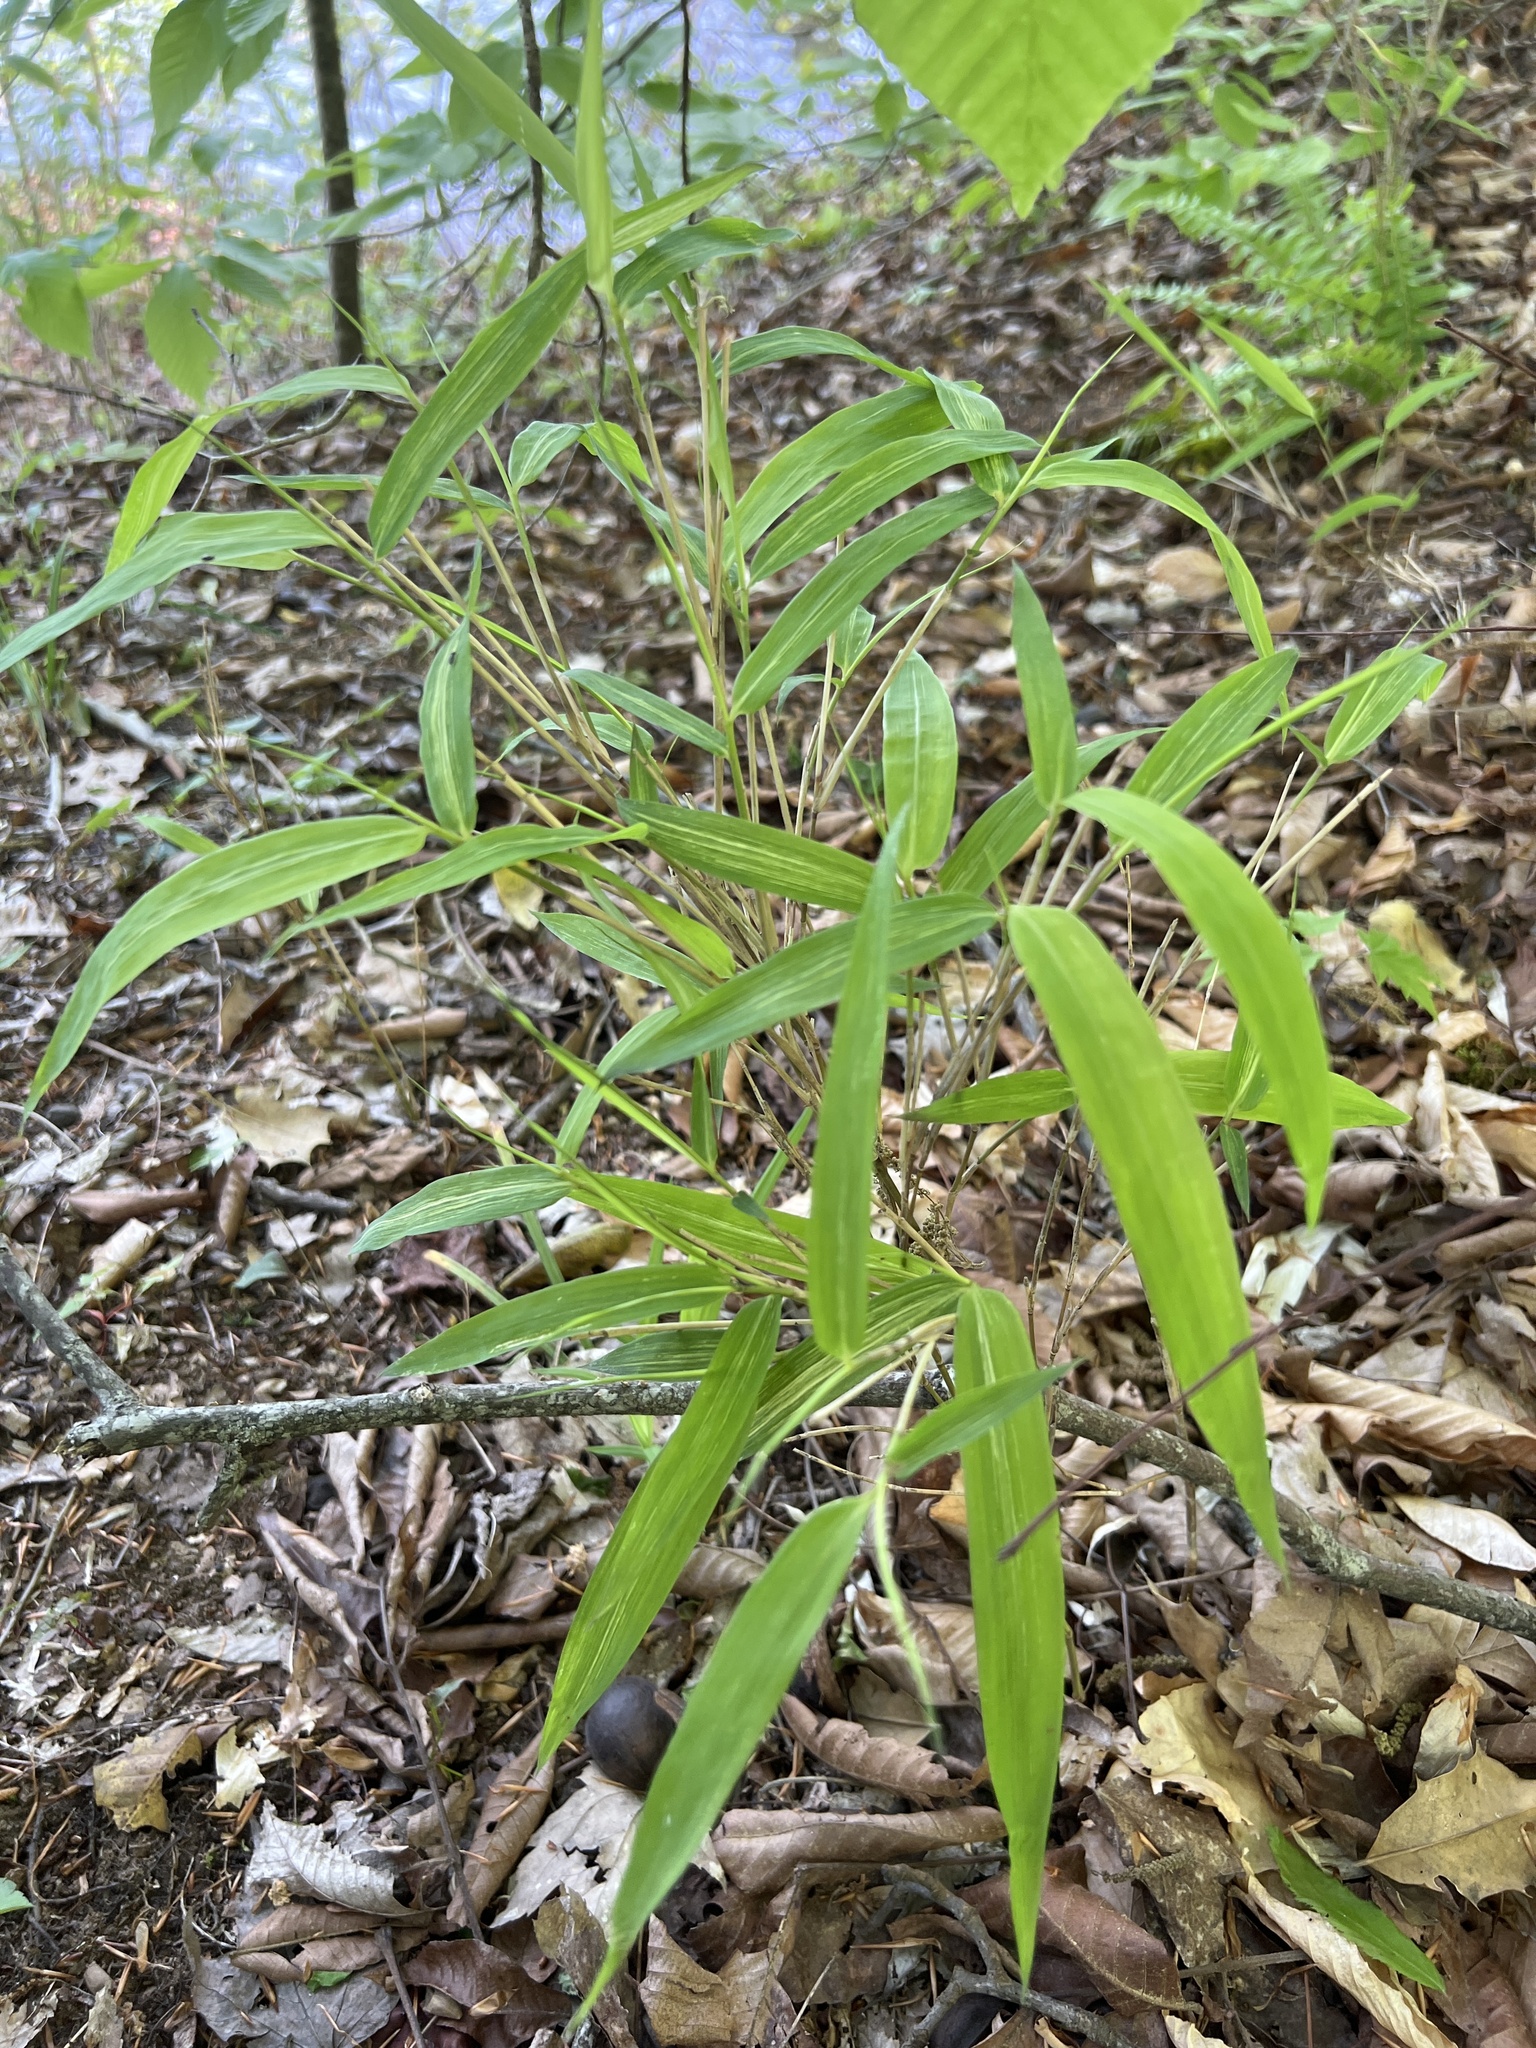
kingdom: Plantae
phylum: Tracheophyta
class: Liliopsida
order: Poales
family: Poaceae
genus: Arundinaria
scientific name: Arundinaria appalachiana
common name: Hill cane
